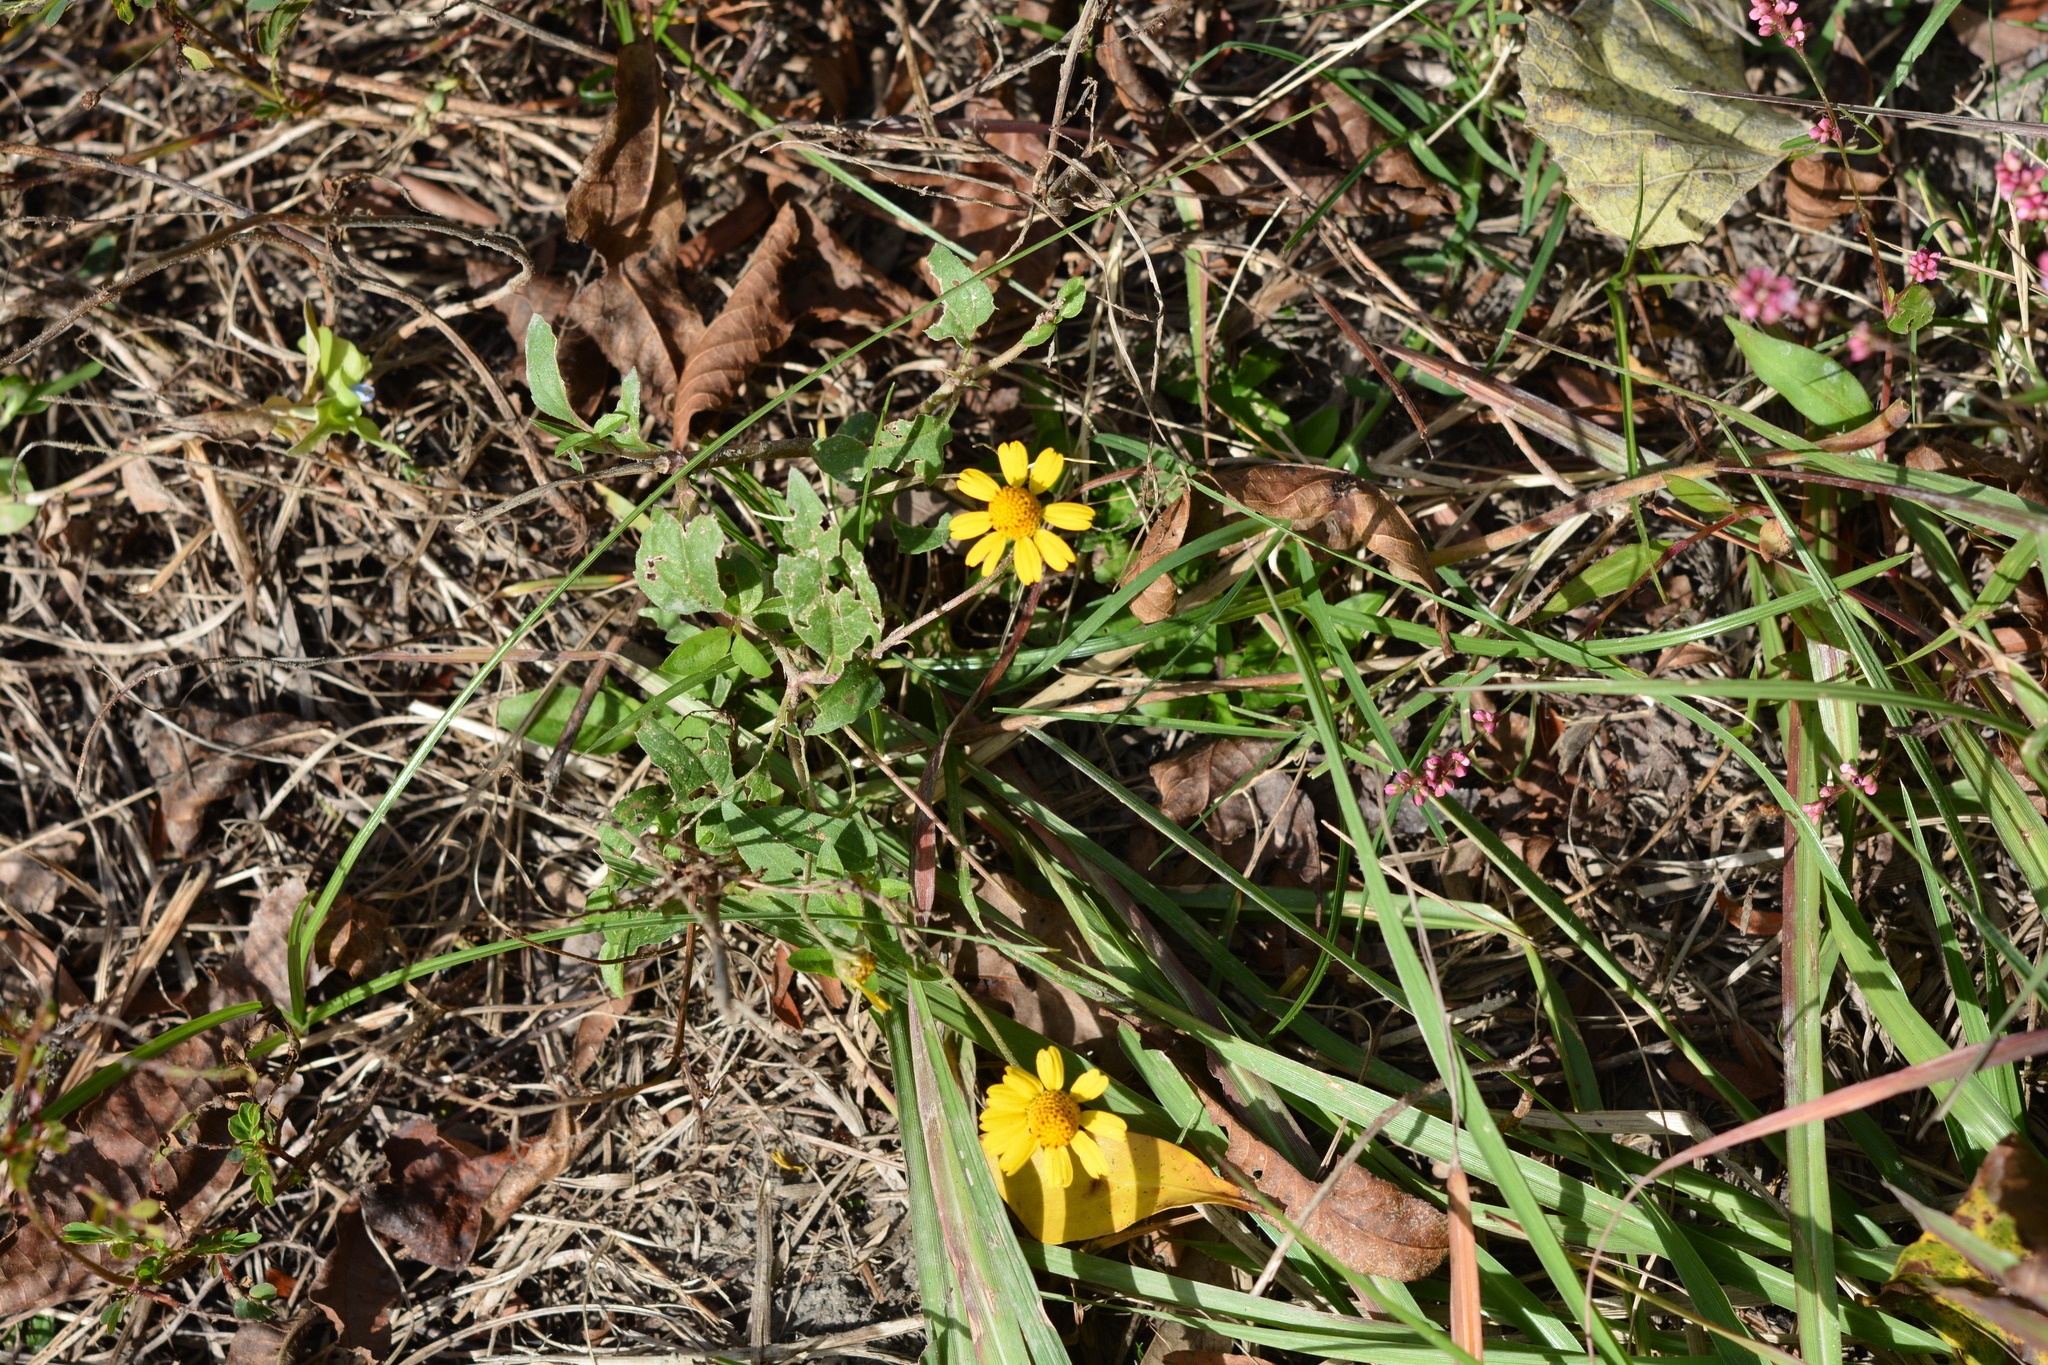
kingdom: Plantae
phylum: Tracheophyta
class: Magnoliopsida
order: Asterales
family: Asteraceae
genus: Acmella
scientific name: Acmella repens
